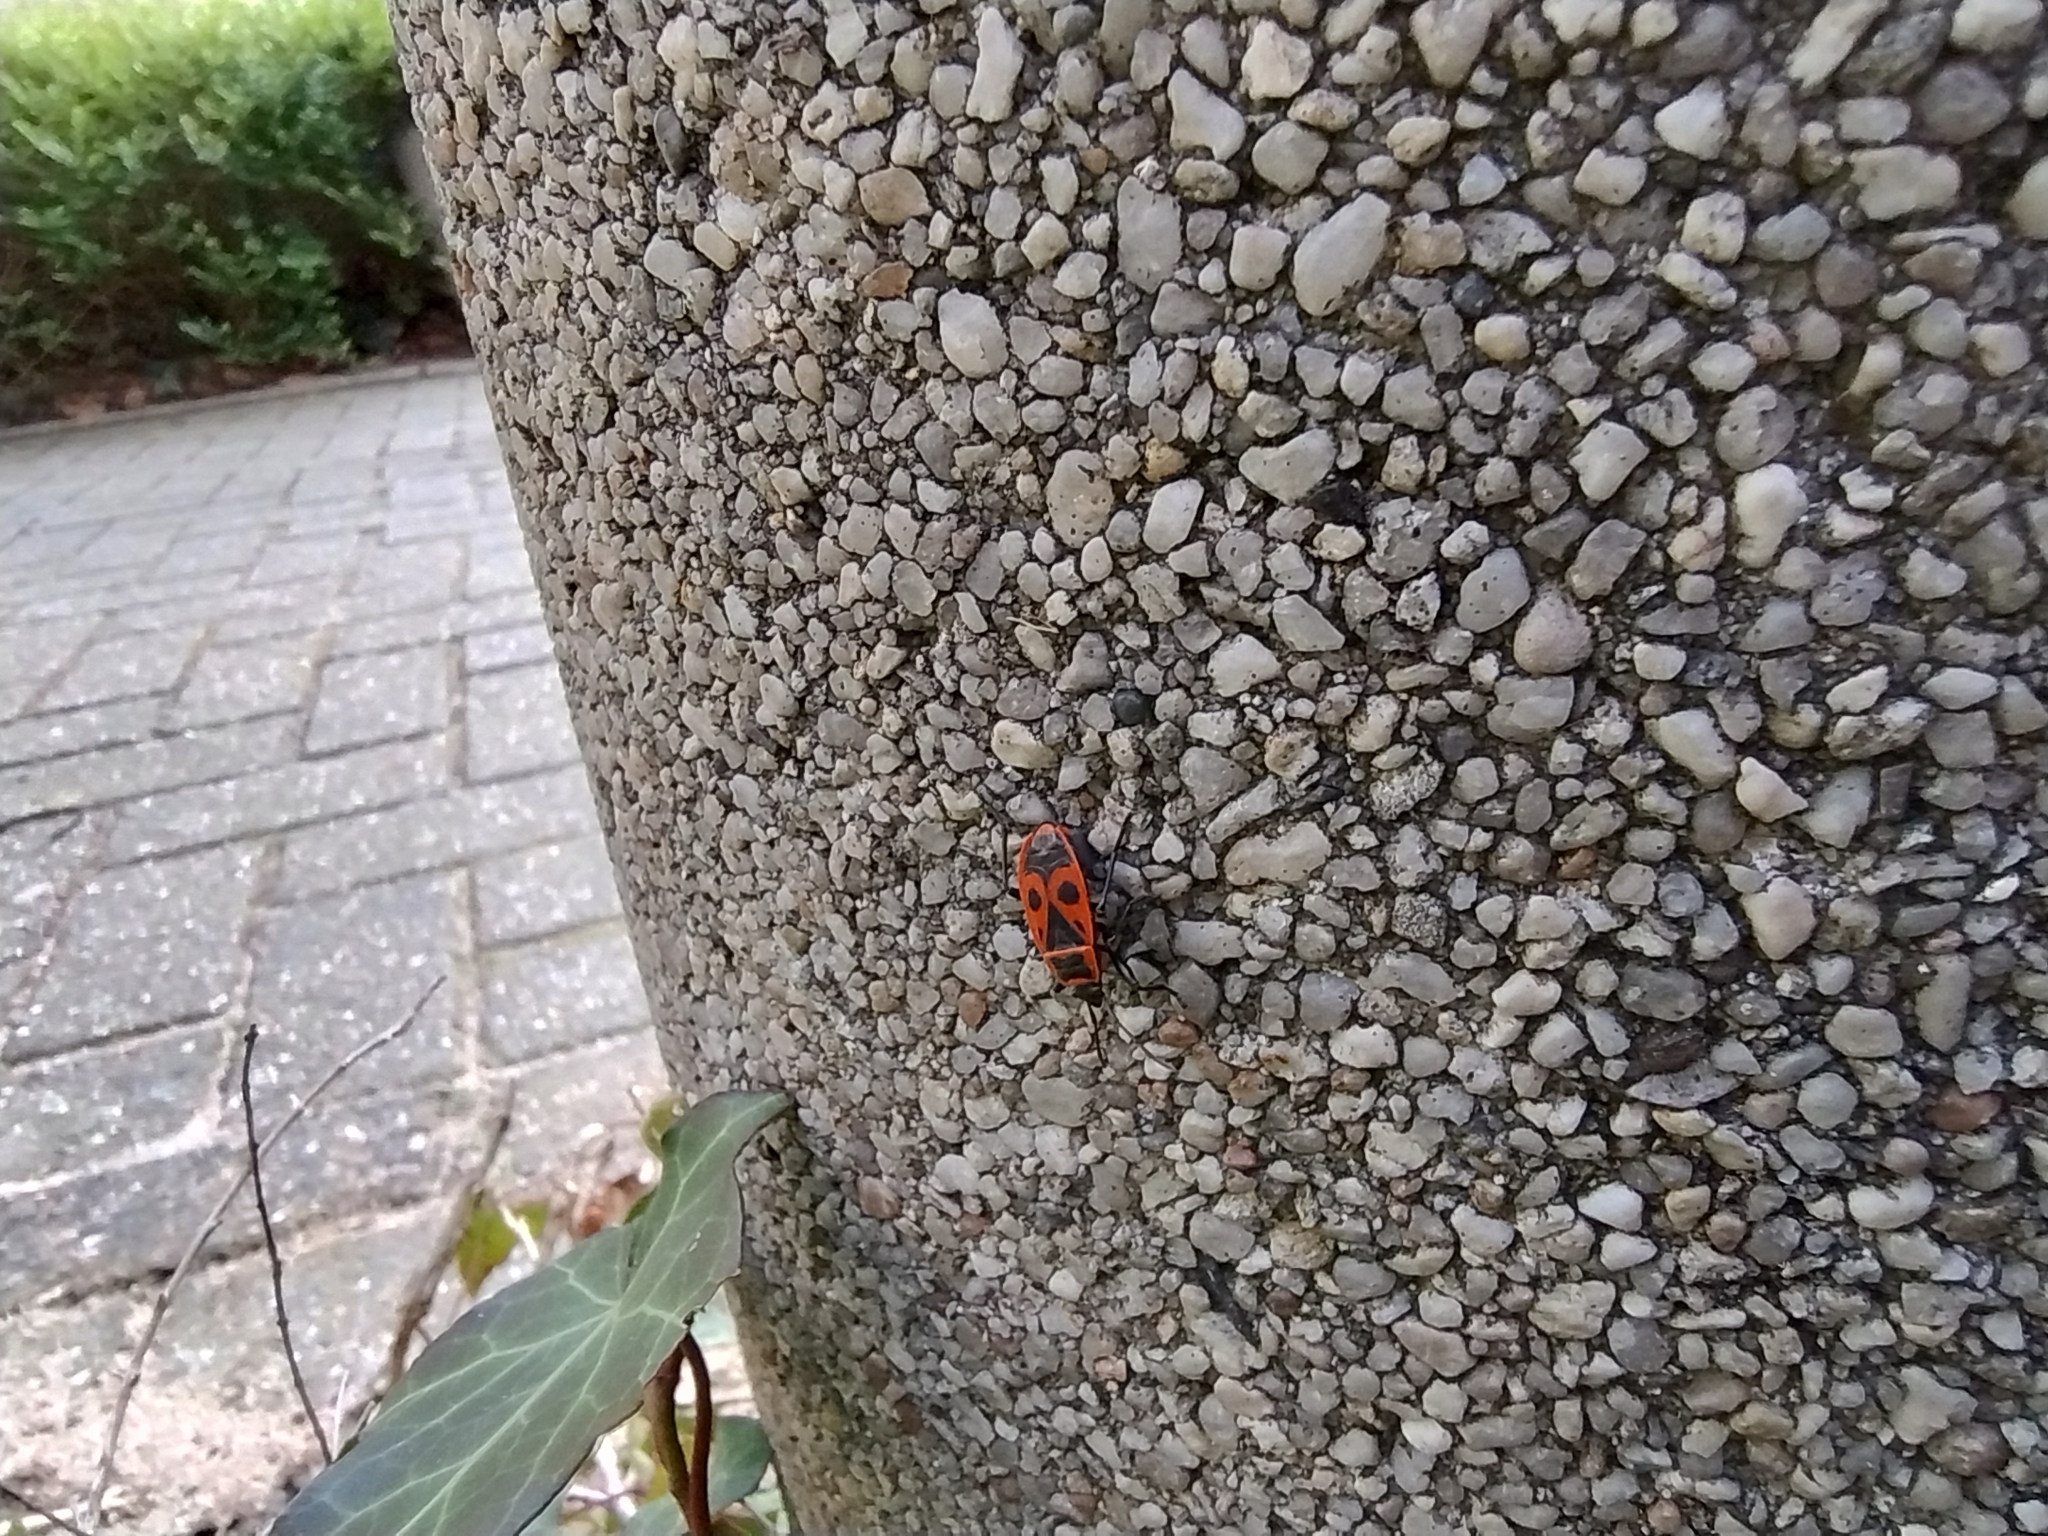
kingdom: Animalia
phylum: Arthropoda
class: Insecta
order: Hemiptera
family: Pyrrhocoridae
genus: Pyrrhocoris
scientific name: Pyrrhocoris apterus
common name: Firebug
